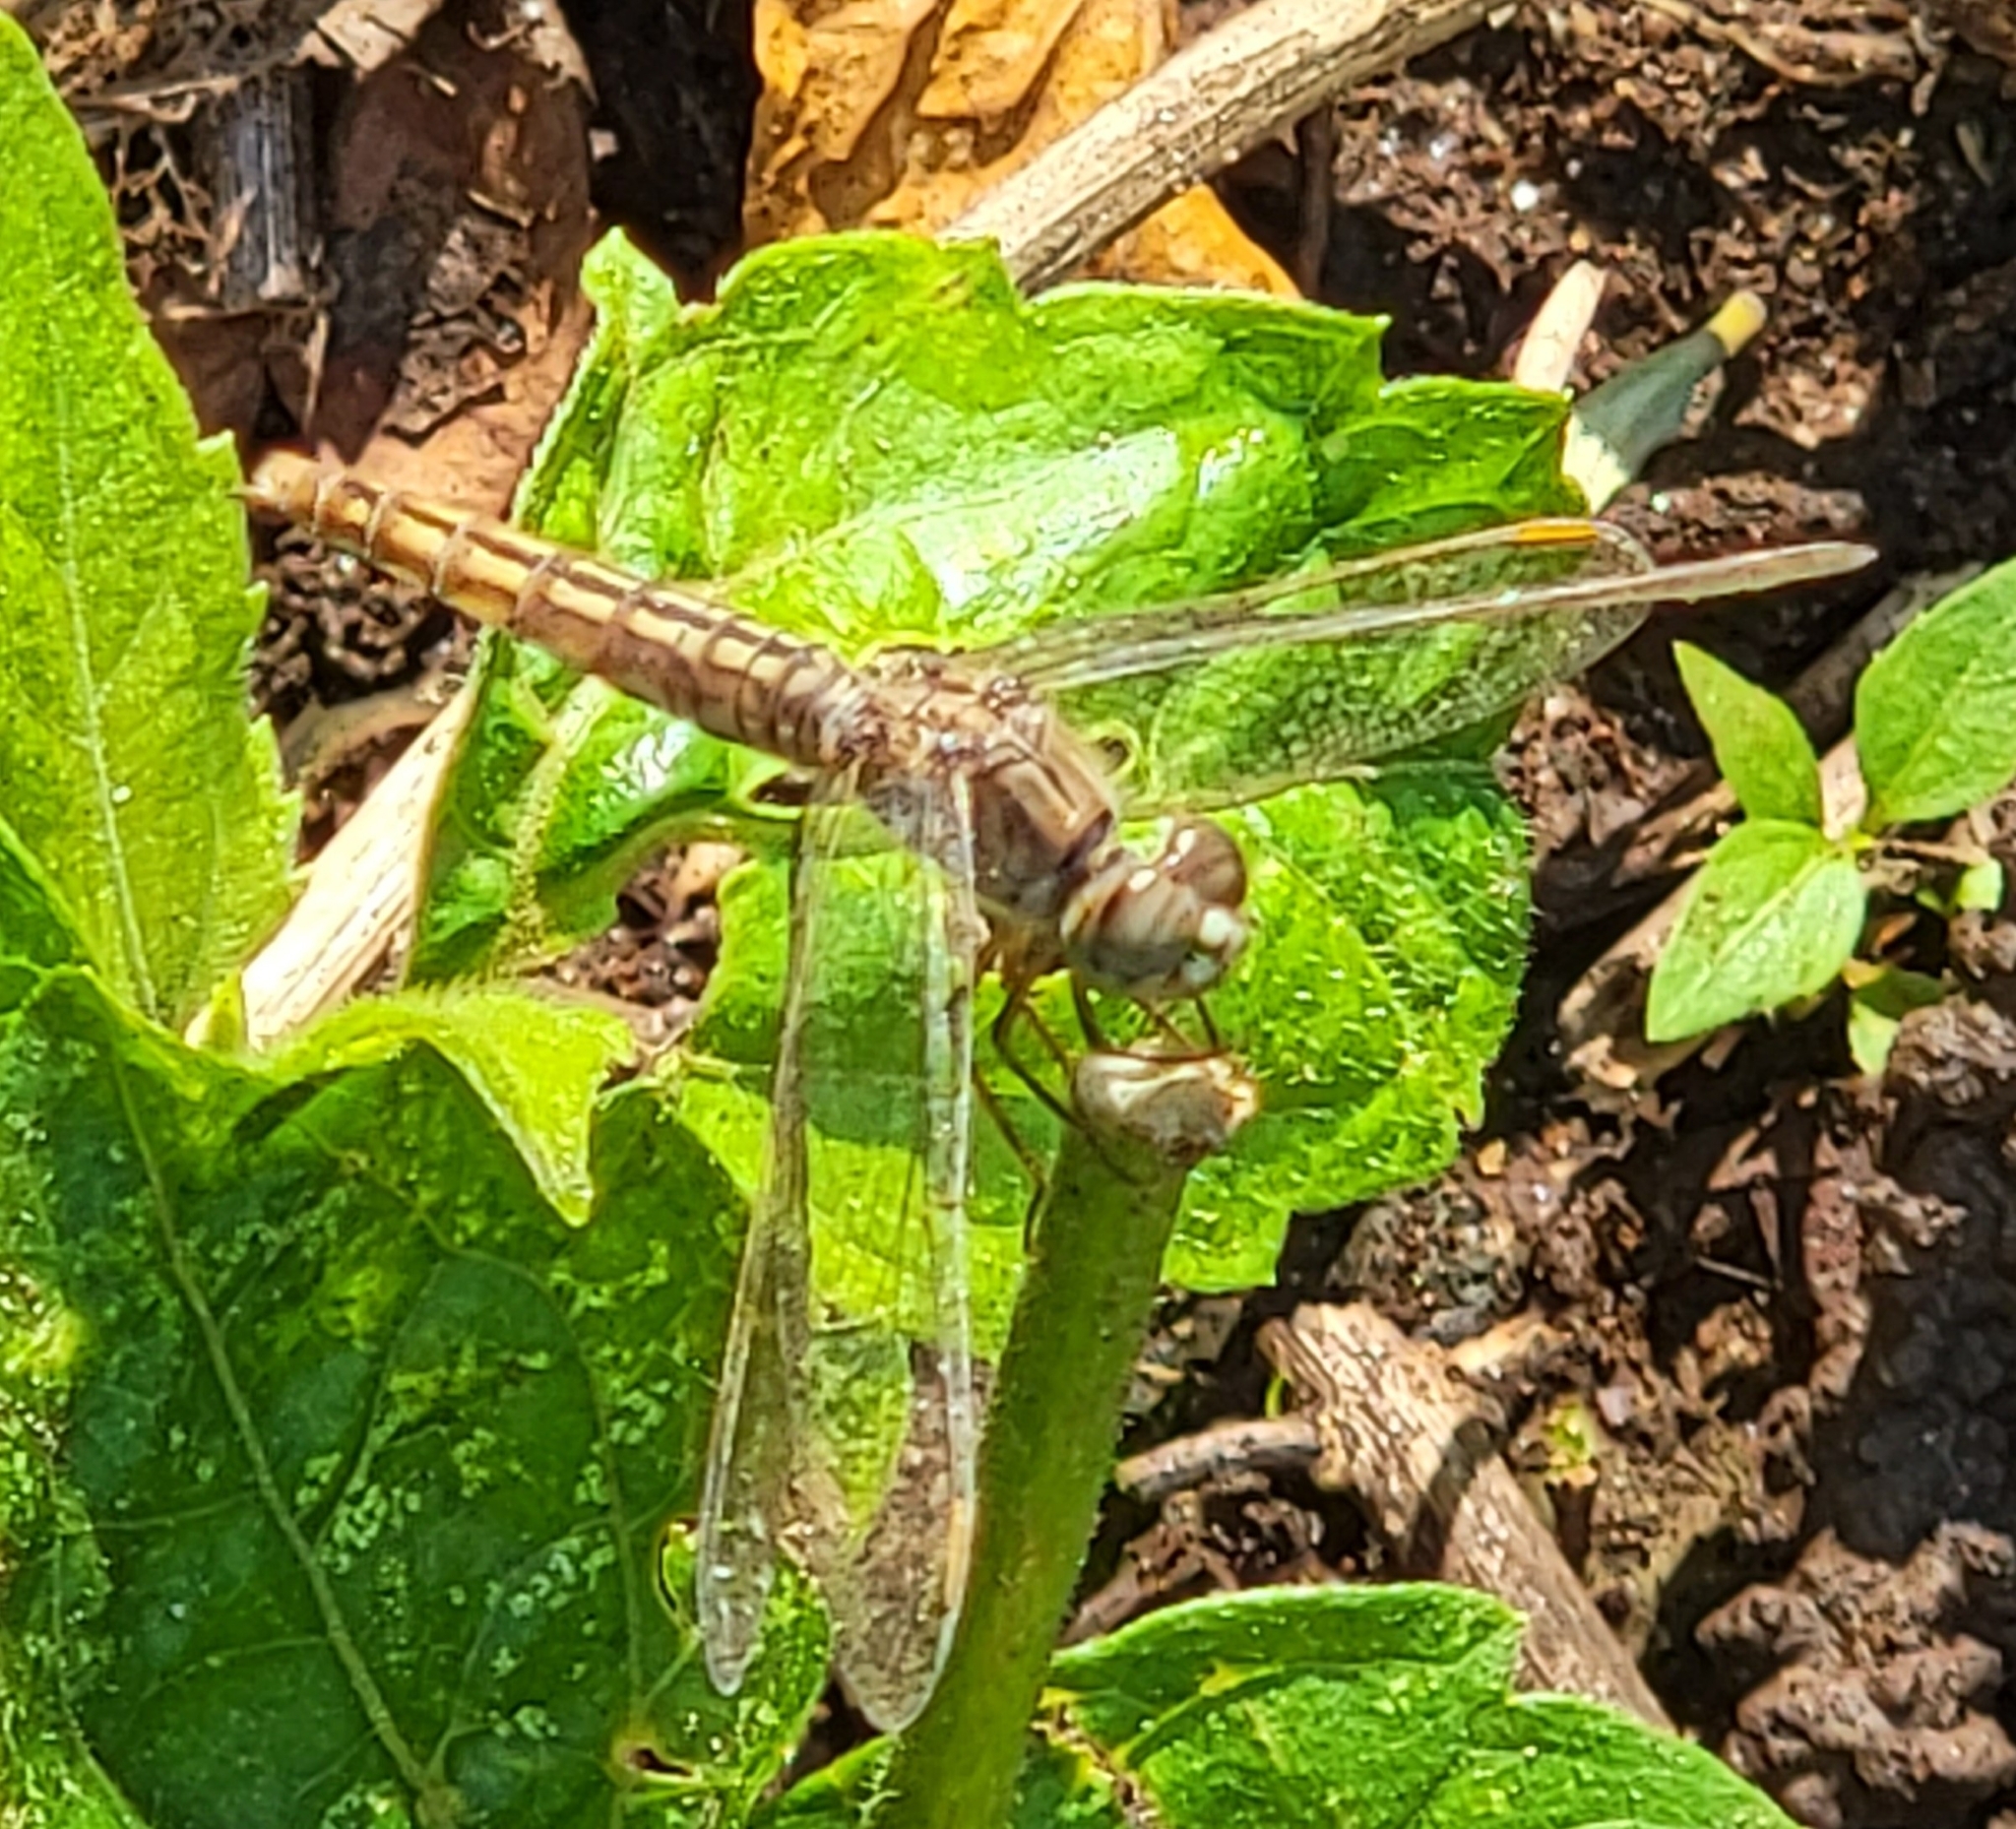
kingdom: Animalia
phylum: Arthropoda
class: Insecta
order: Odonata
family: Libellulidae
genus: Brachythemis
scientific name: Brachythemis contaminata
